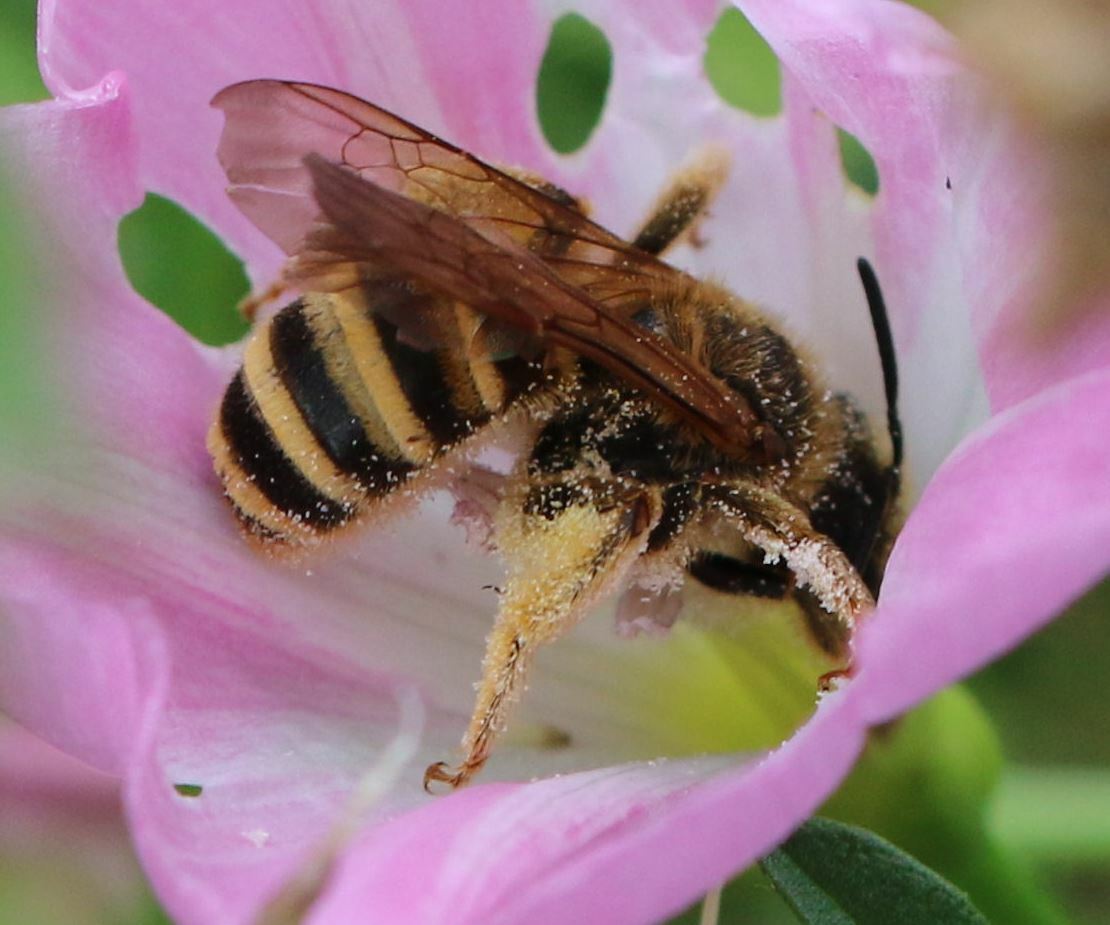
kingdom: Animalia
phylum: Arthropoda
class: Insecta
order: Hymenoptera
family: Halictidae
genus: Halictus
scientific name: Halictus scabiosae
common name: Great banded furrow bee
